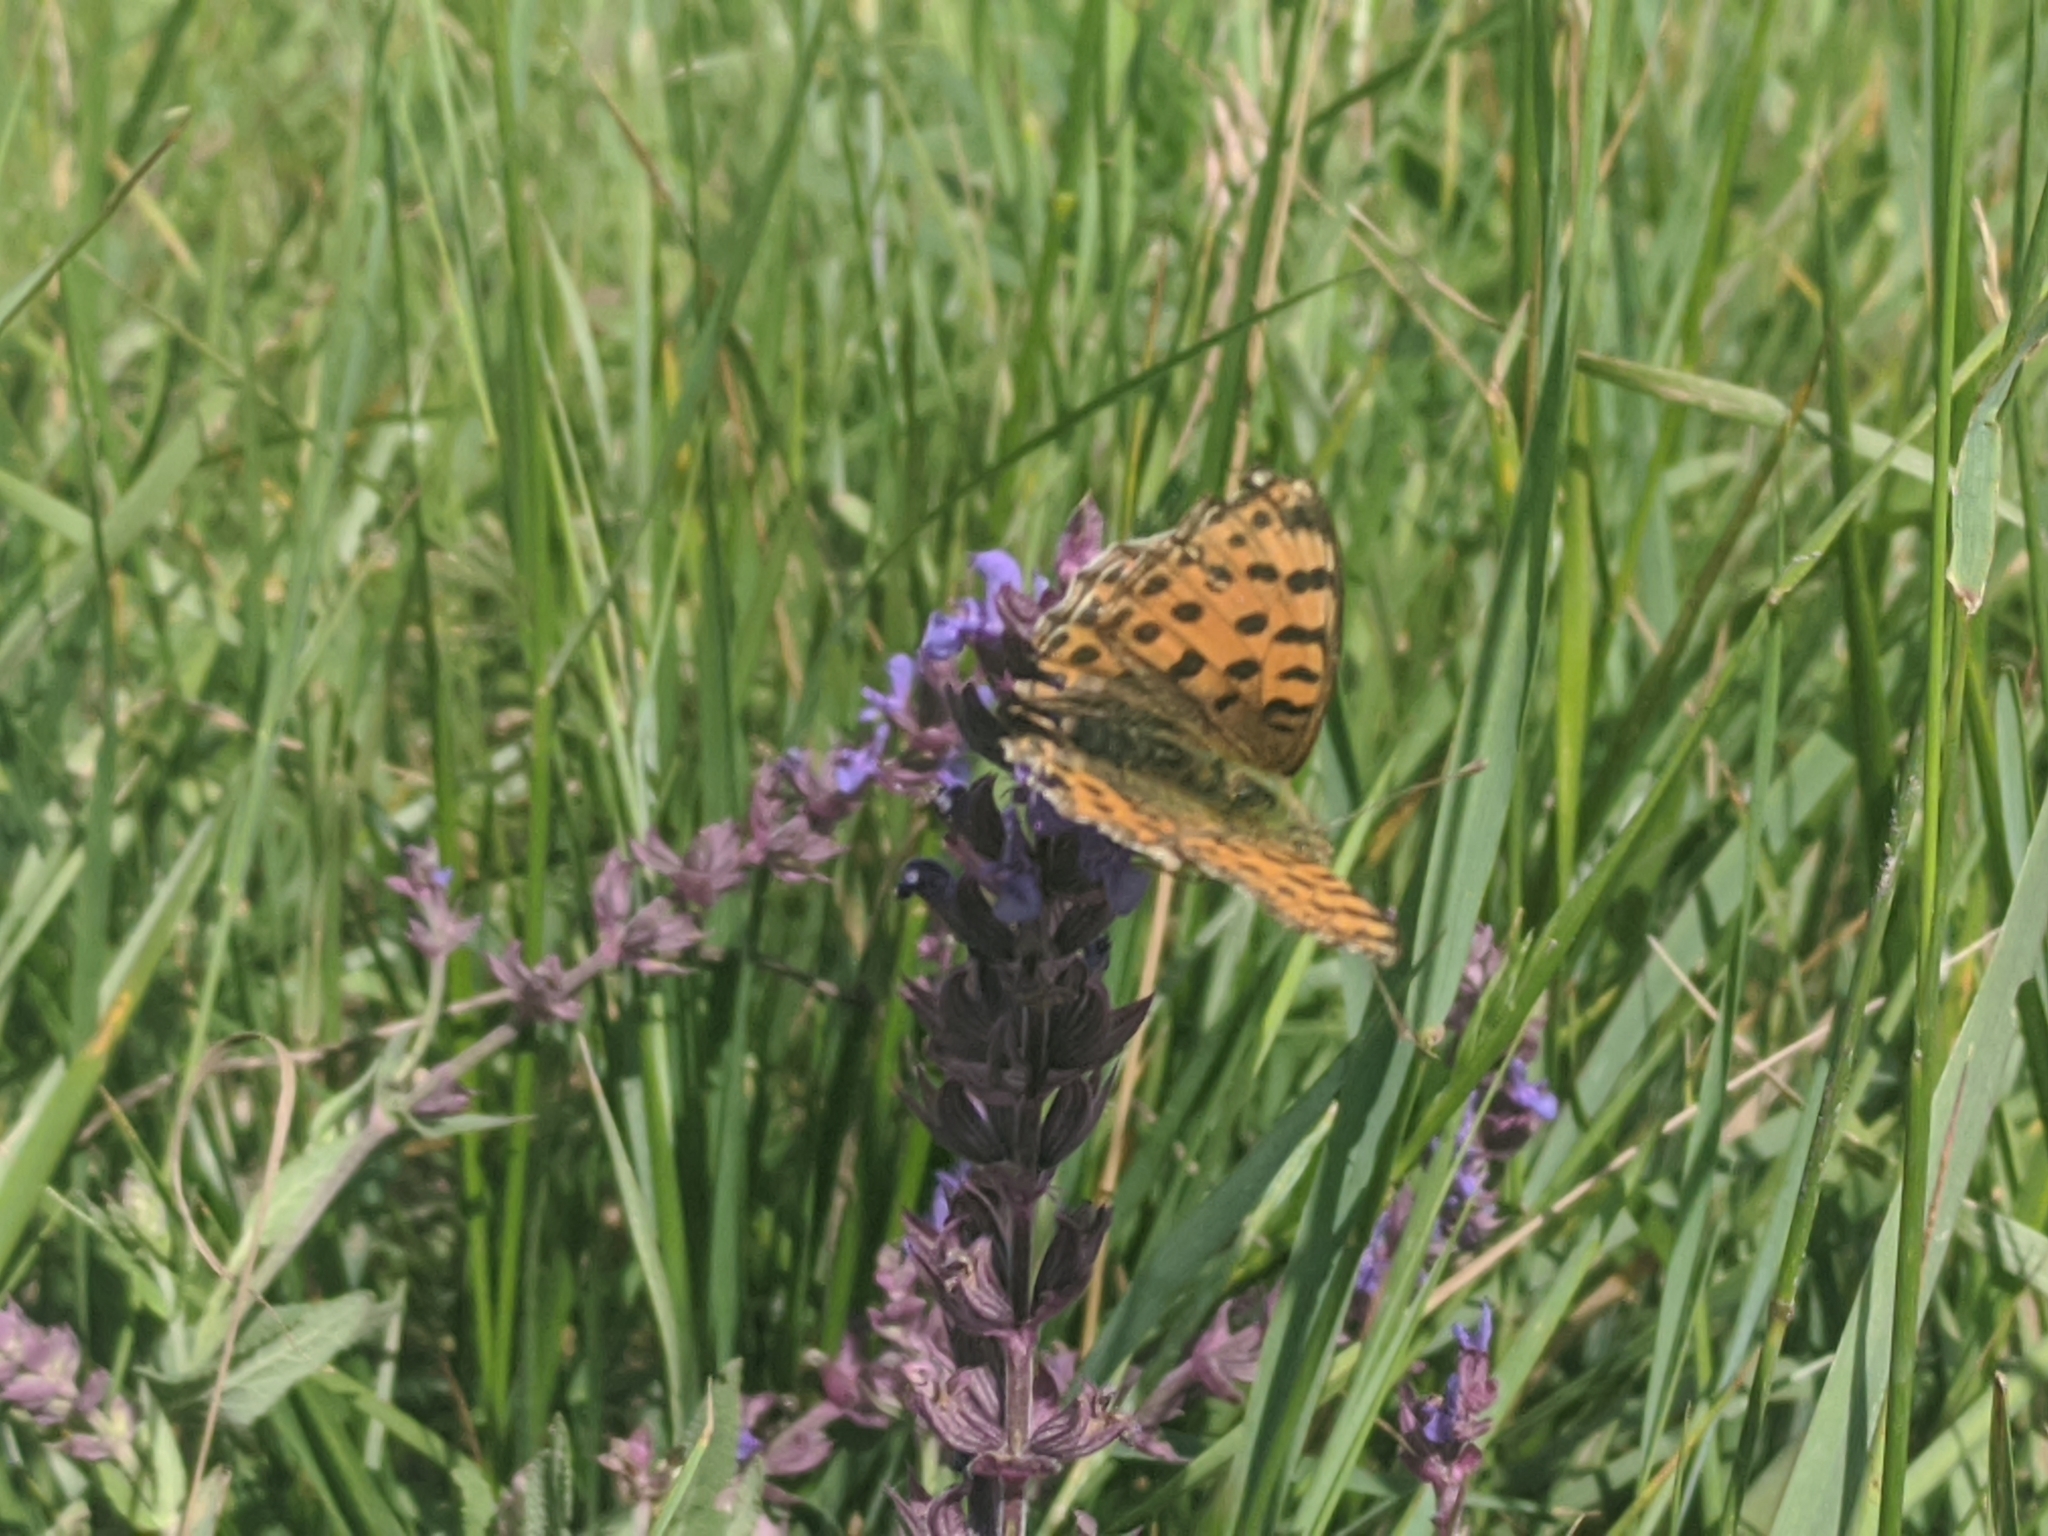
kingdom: Animalia
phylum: Arthropoda
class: Insecta
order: Lepidoptera
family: Nymphalidae
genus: Issoria
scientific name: Issoria lathonia
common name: Queen of spain fritillary
